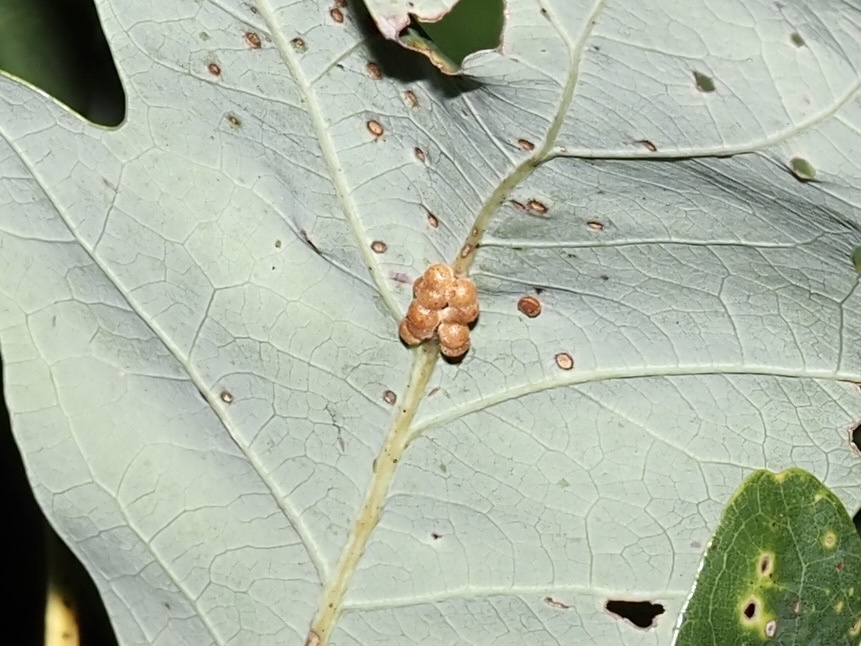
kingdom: Animalia
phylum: Arthropoda
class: Insecta
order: Hymenoptera
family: Cynipidae
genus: Andricus
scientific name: Andricus
